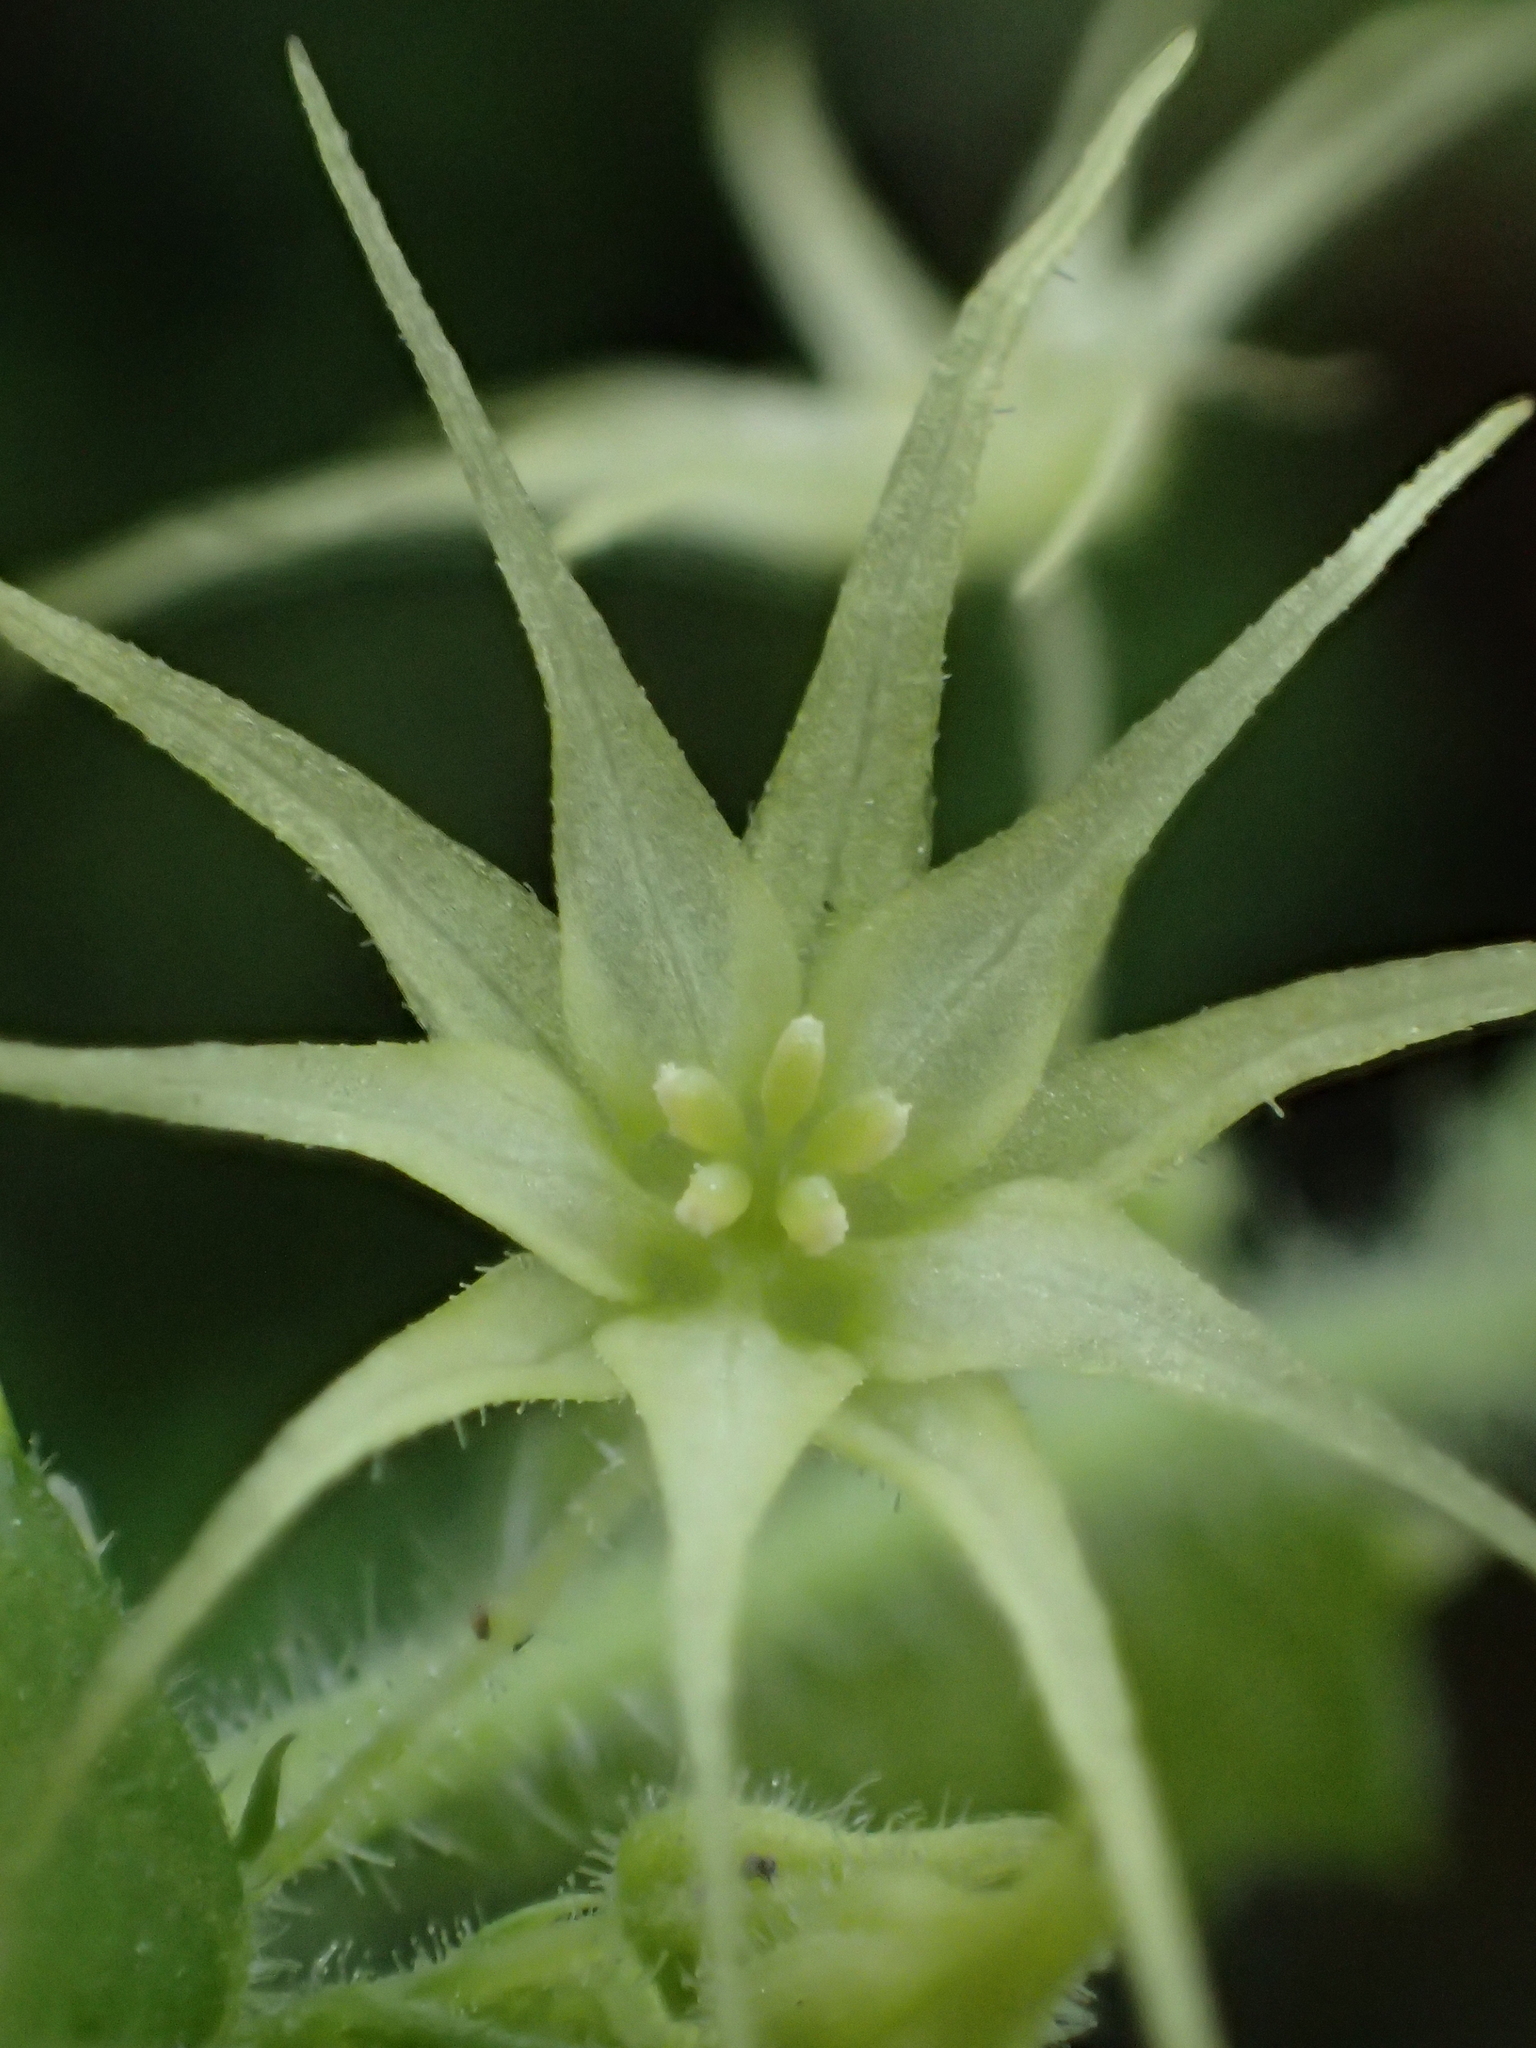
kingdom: Plantae
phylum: Tracheophyta
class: Magnoliopsida
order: Cucurbitales
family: Cucurbitaceae
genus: Actinostemma
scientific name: Actinostemma tenerum
